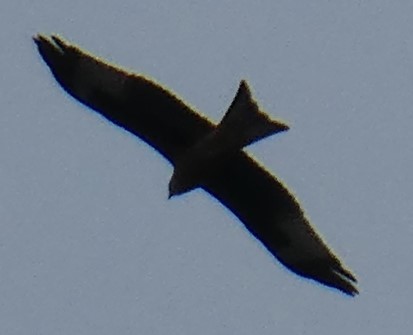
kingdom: Animalia
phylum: Chordata
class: Aves
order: Accipitriformes
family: Accipitridae
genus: Milvus
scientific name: Milvus milvus
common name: Red kite
